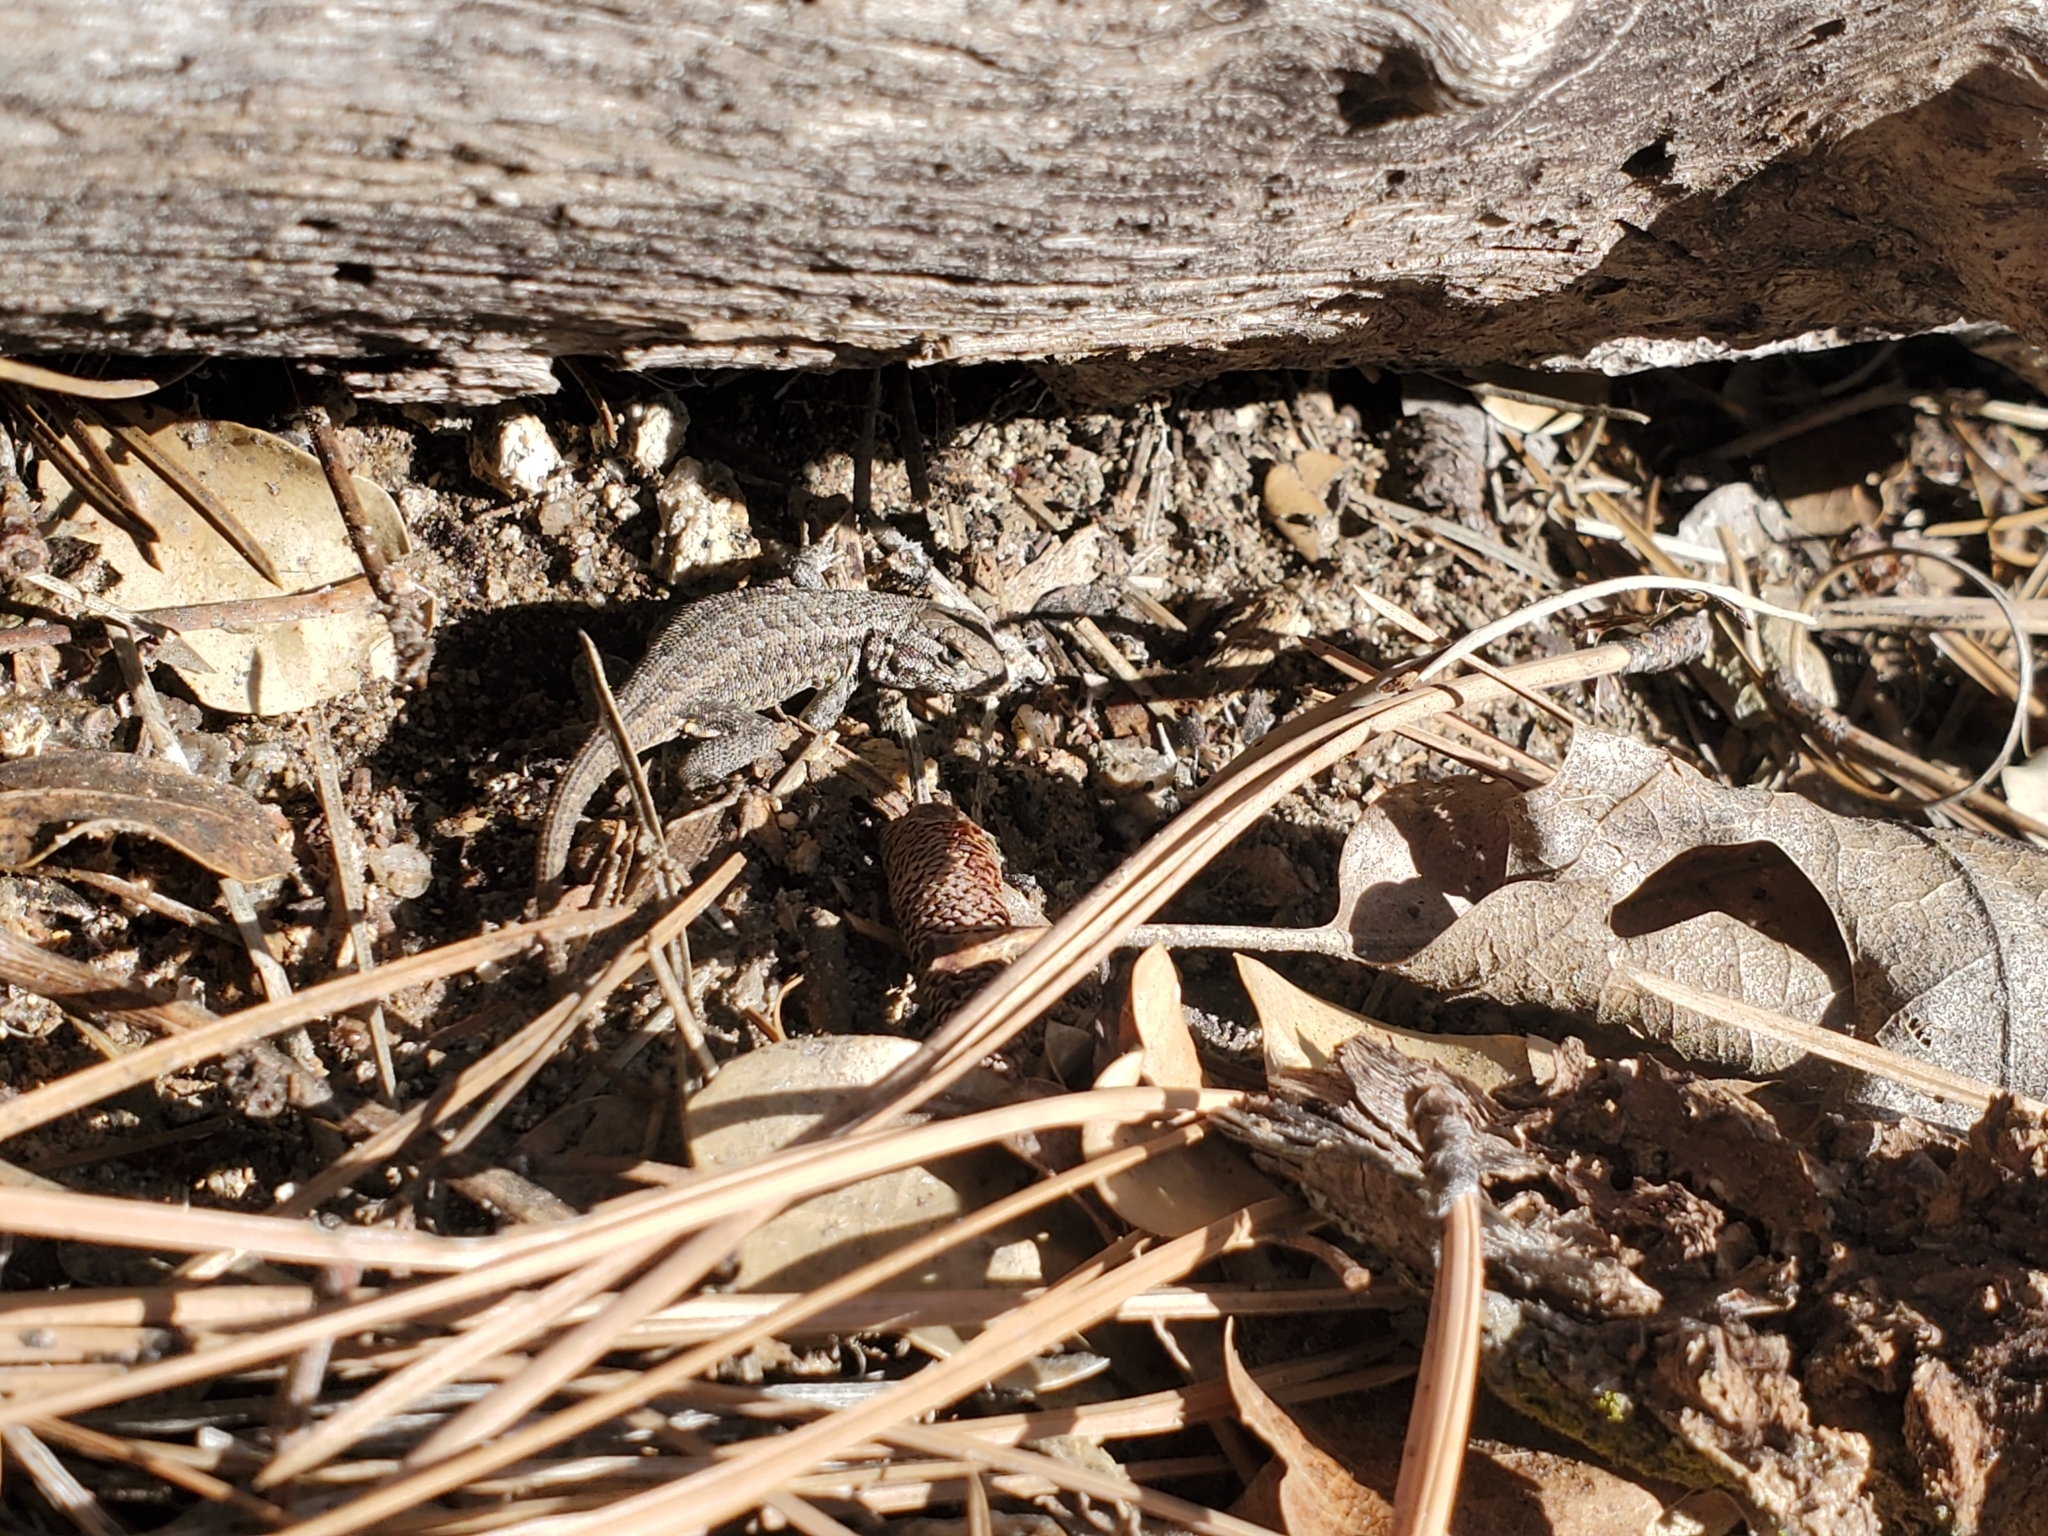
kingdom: Animalia
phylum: Chordata
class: Squamata
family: Phrynosomatidae
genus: Sceloporus
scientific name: Sceloporus graciosus
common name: Sagebrush lizard
